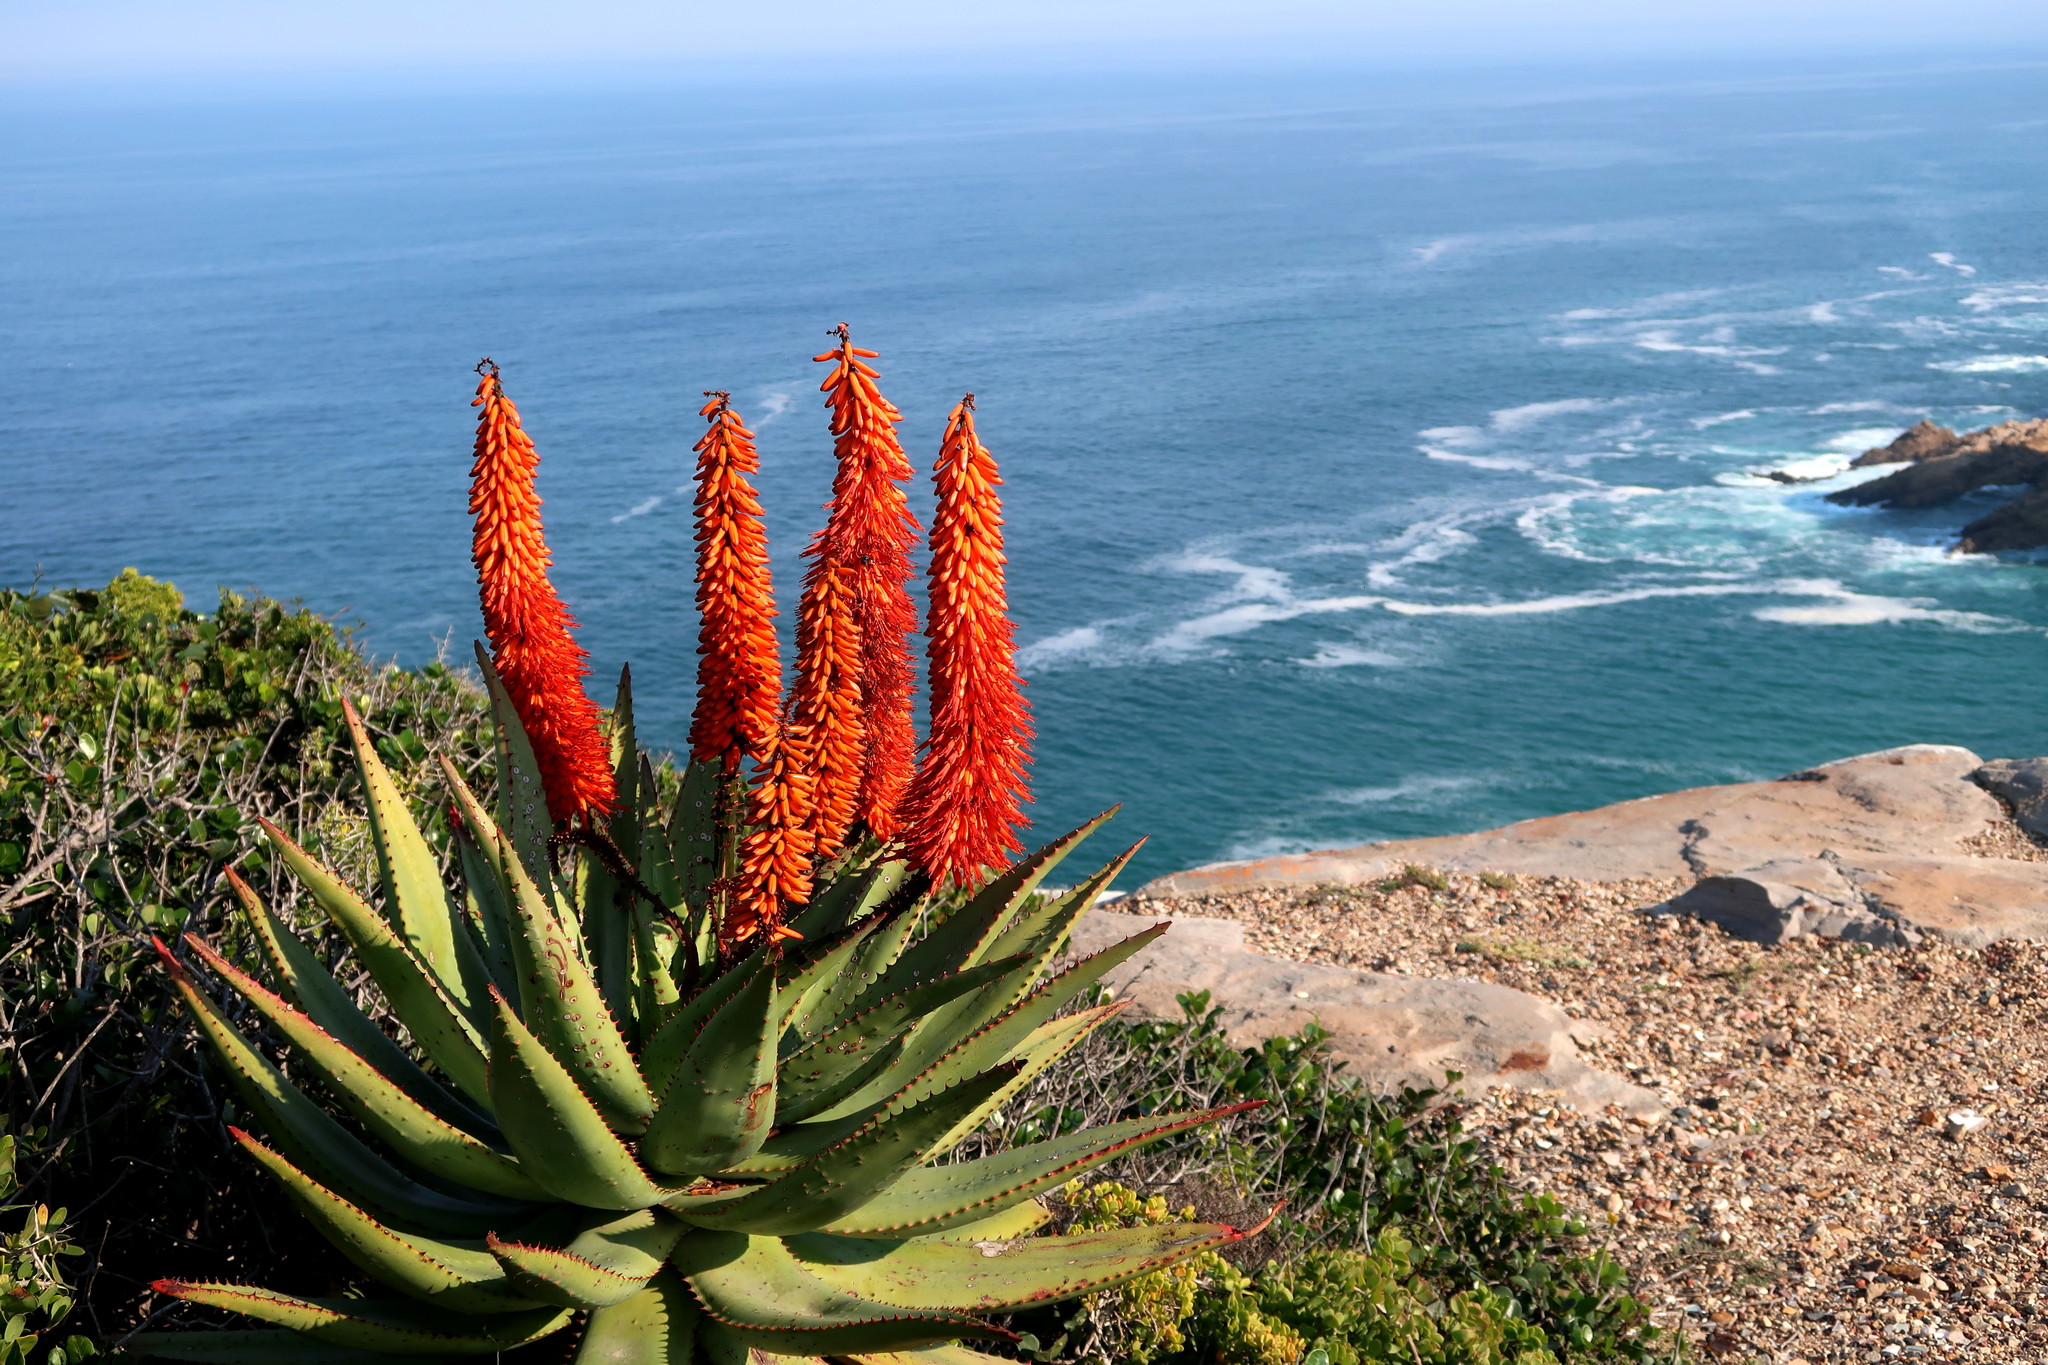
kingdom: Plantae
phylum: Tracheophyta
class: Liliopsida
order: Asparagales
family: Asphodelaceae
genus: Aloe
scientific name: Aloe ferox
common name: Bitter aloe
